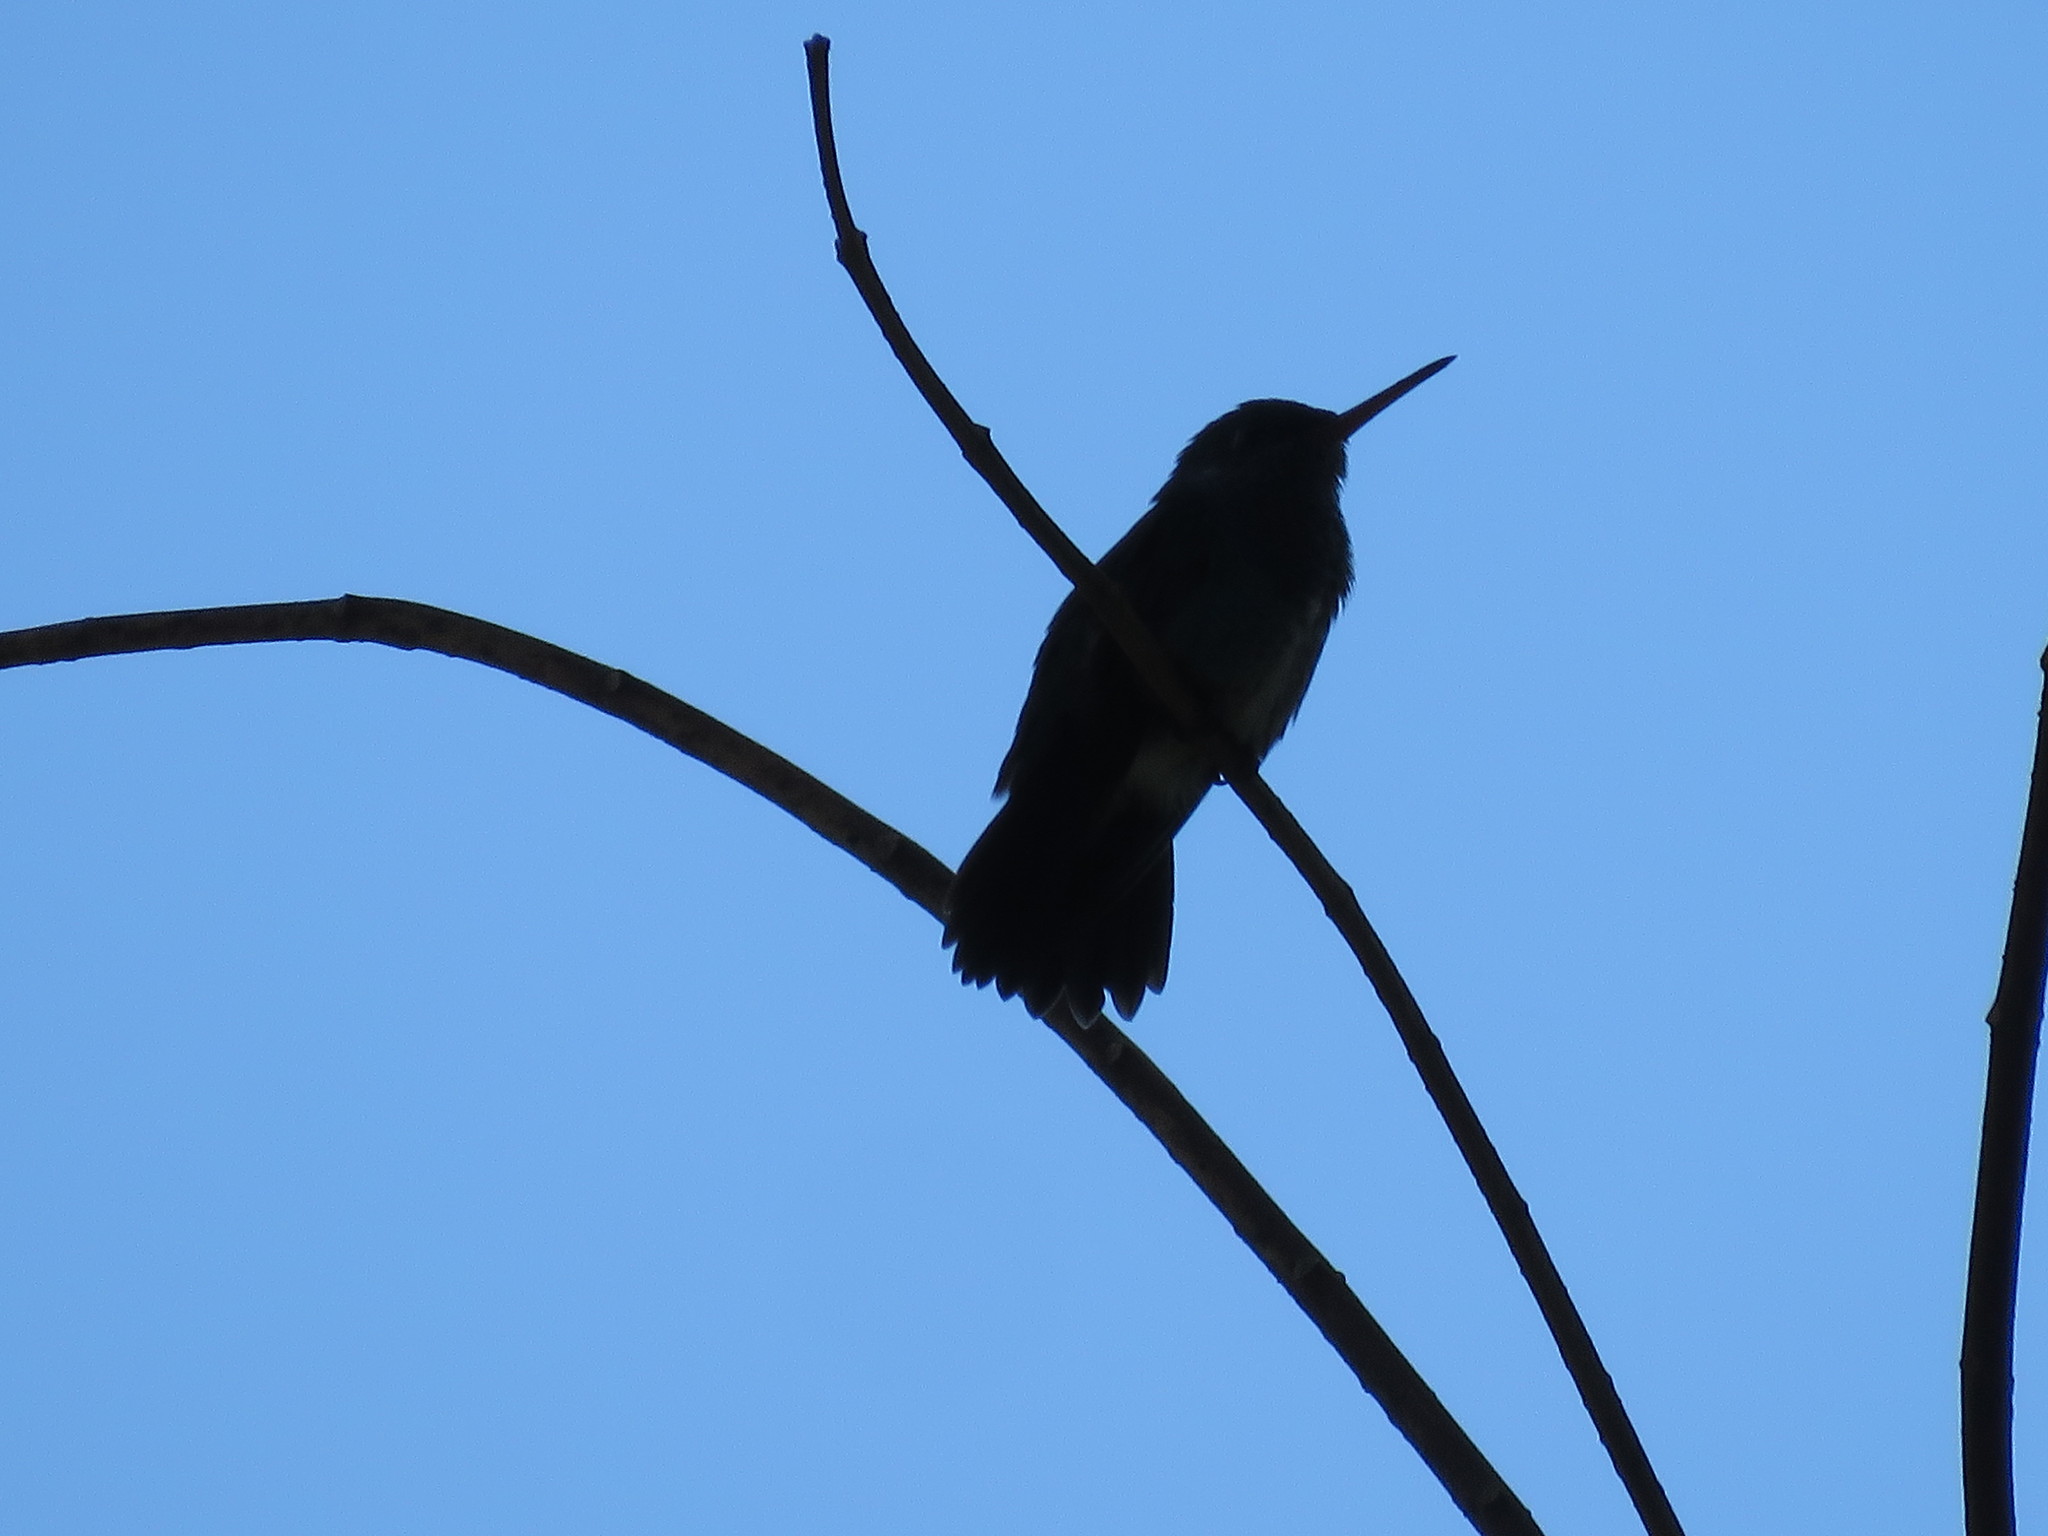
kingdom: Animalia
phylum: Chordata
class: Aves
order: Apodiformes
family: Trochilidae
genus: Chionomesa
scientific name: Chionomesa lactea
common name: Sapphire-spangled emerald
